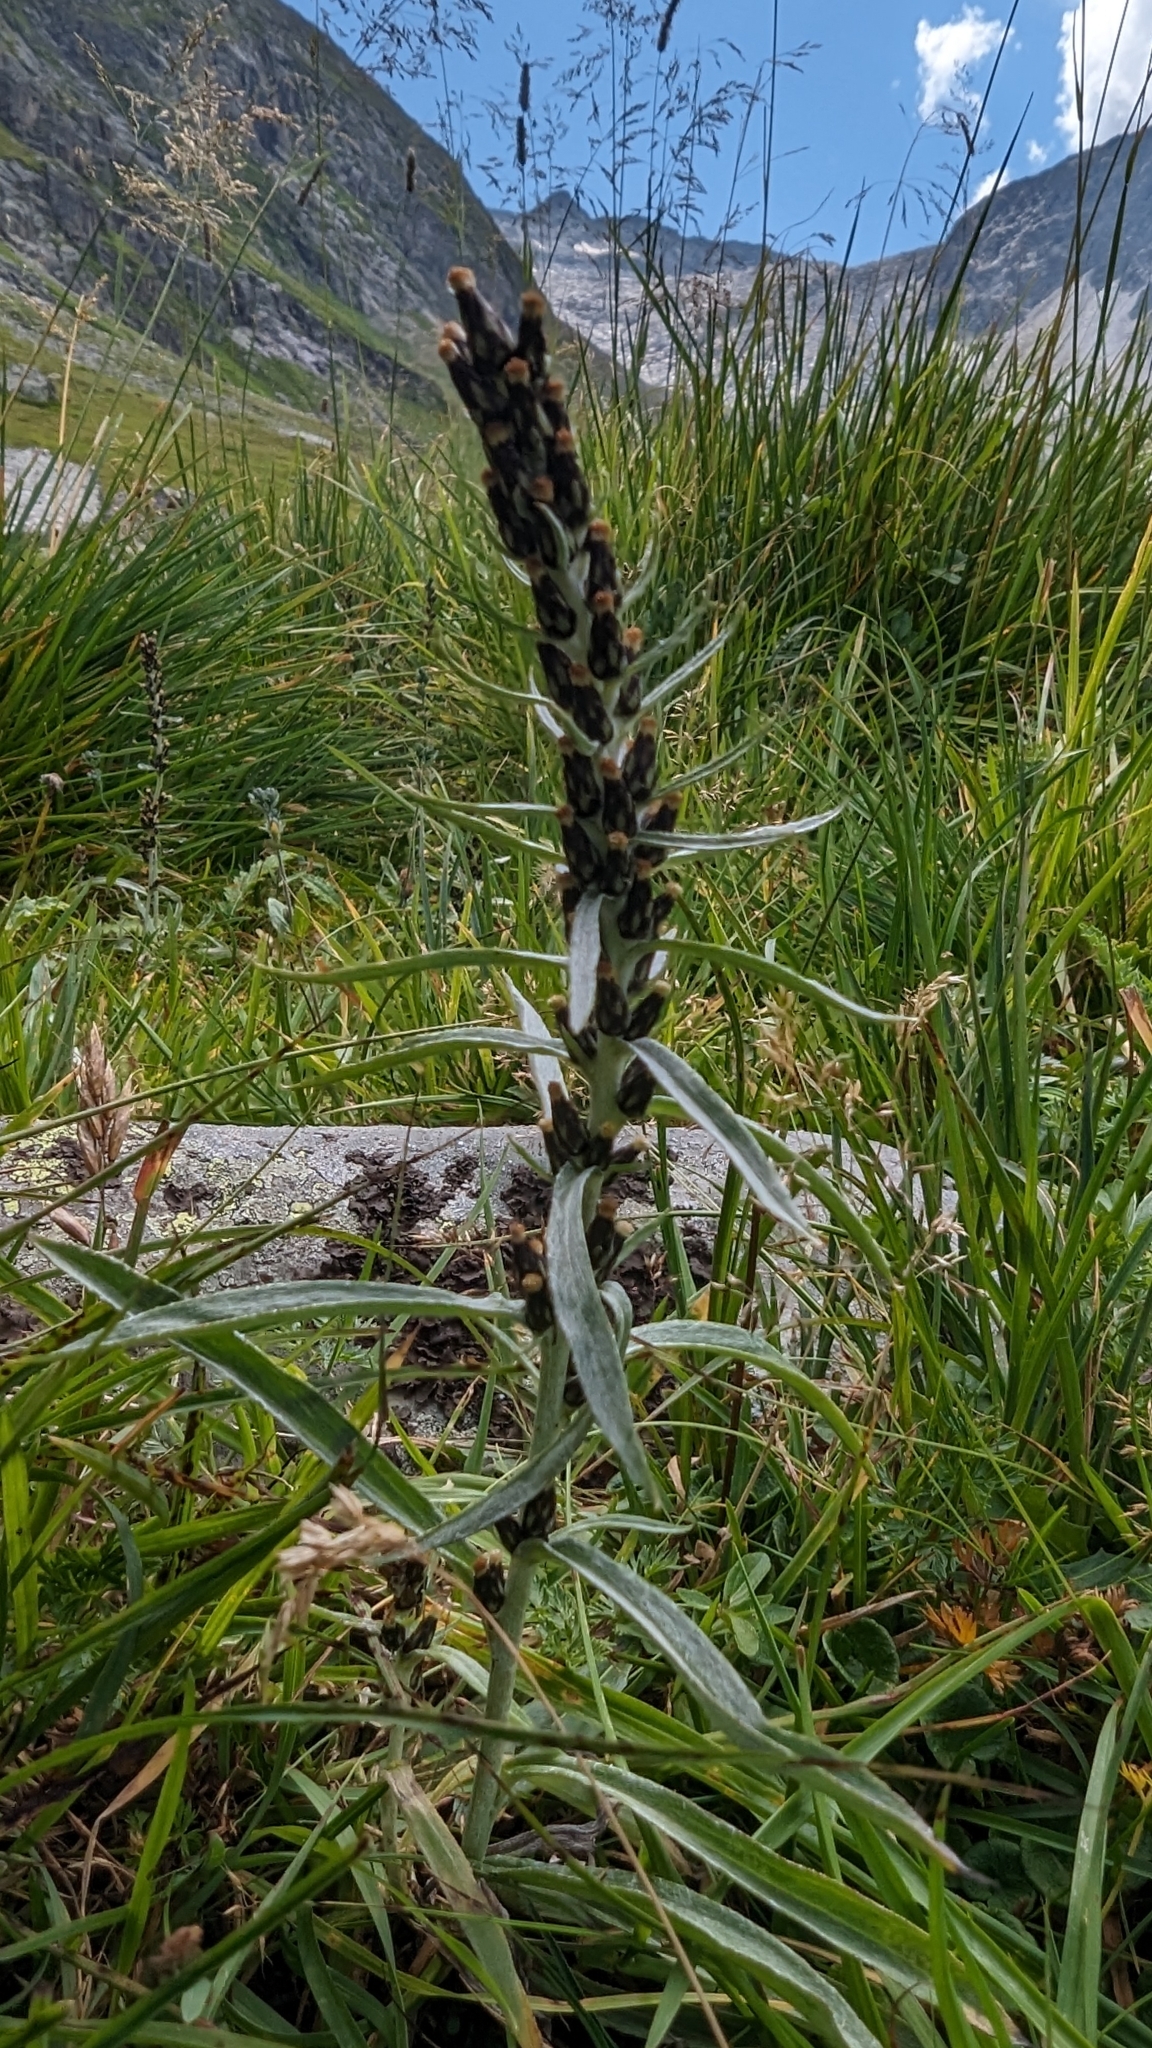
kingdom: Plantae
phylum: Tracheophyta
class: Magnoliopsida
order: Asterales
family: Asteraceae
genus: Omalotheca
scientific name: Omalotheca norvegica
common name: Norwegian arctic-cudweed
